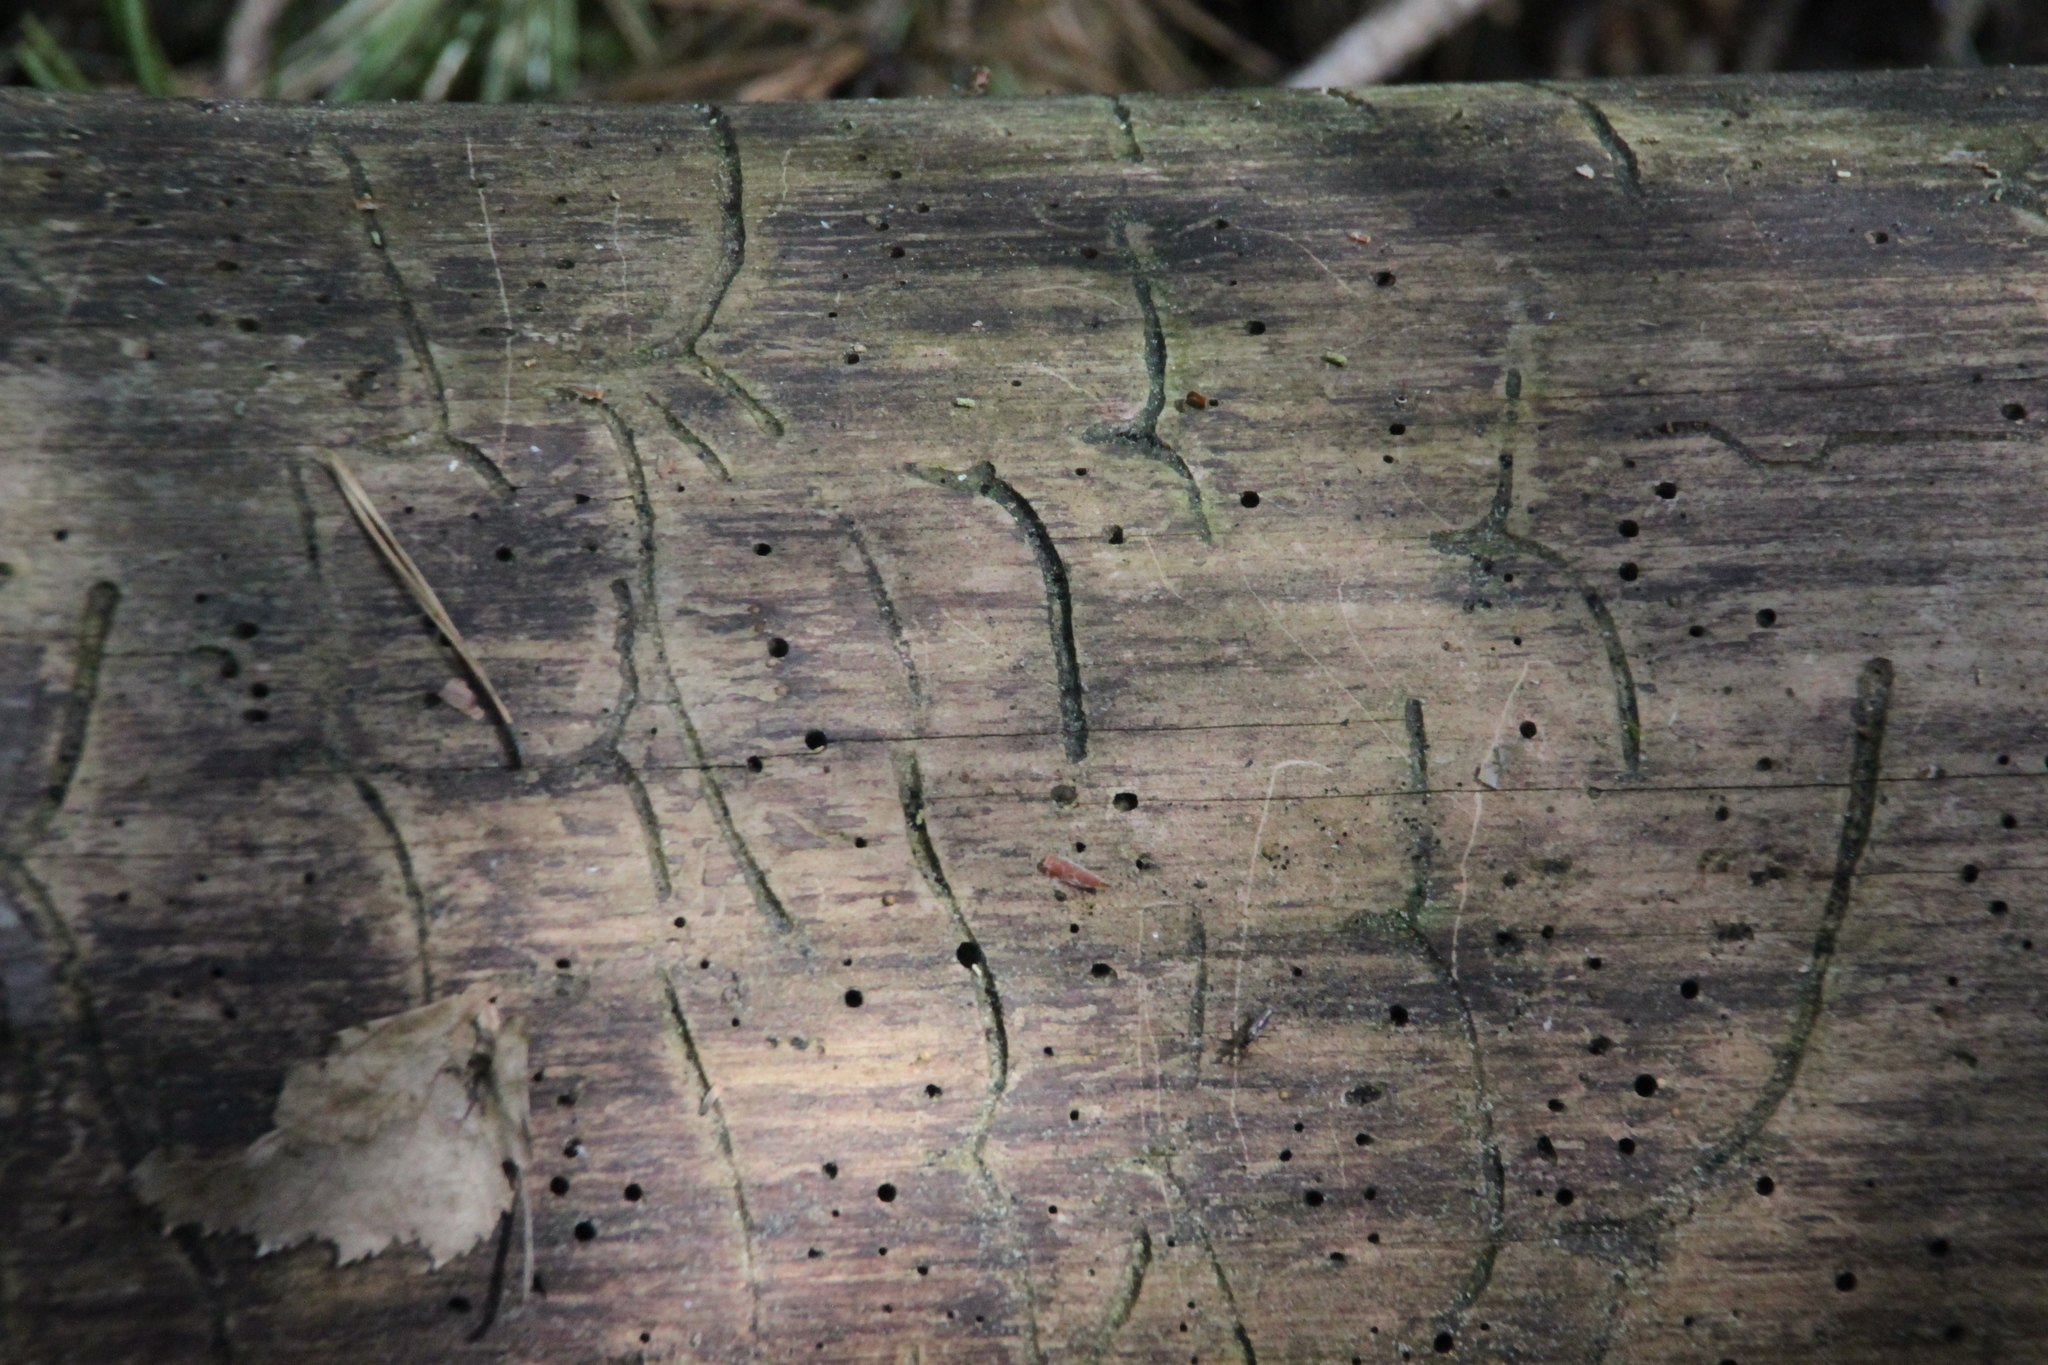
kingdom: Animalia
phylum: Arthropoda
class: Insecta
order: Coleoptera
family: Curculionidae
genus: Tomicus
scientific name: Tomicus minor
